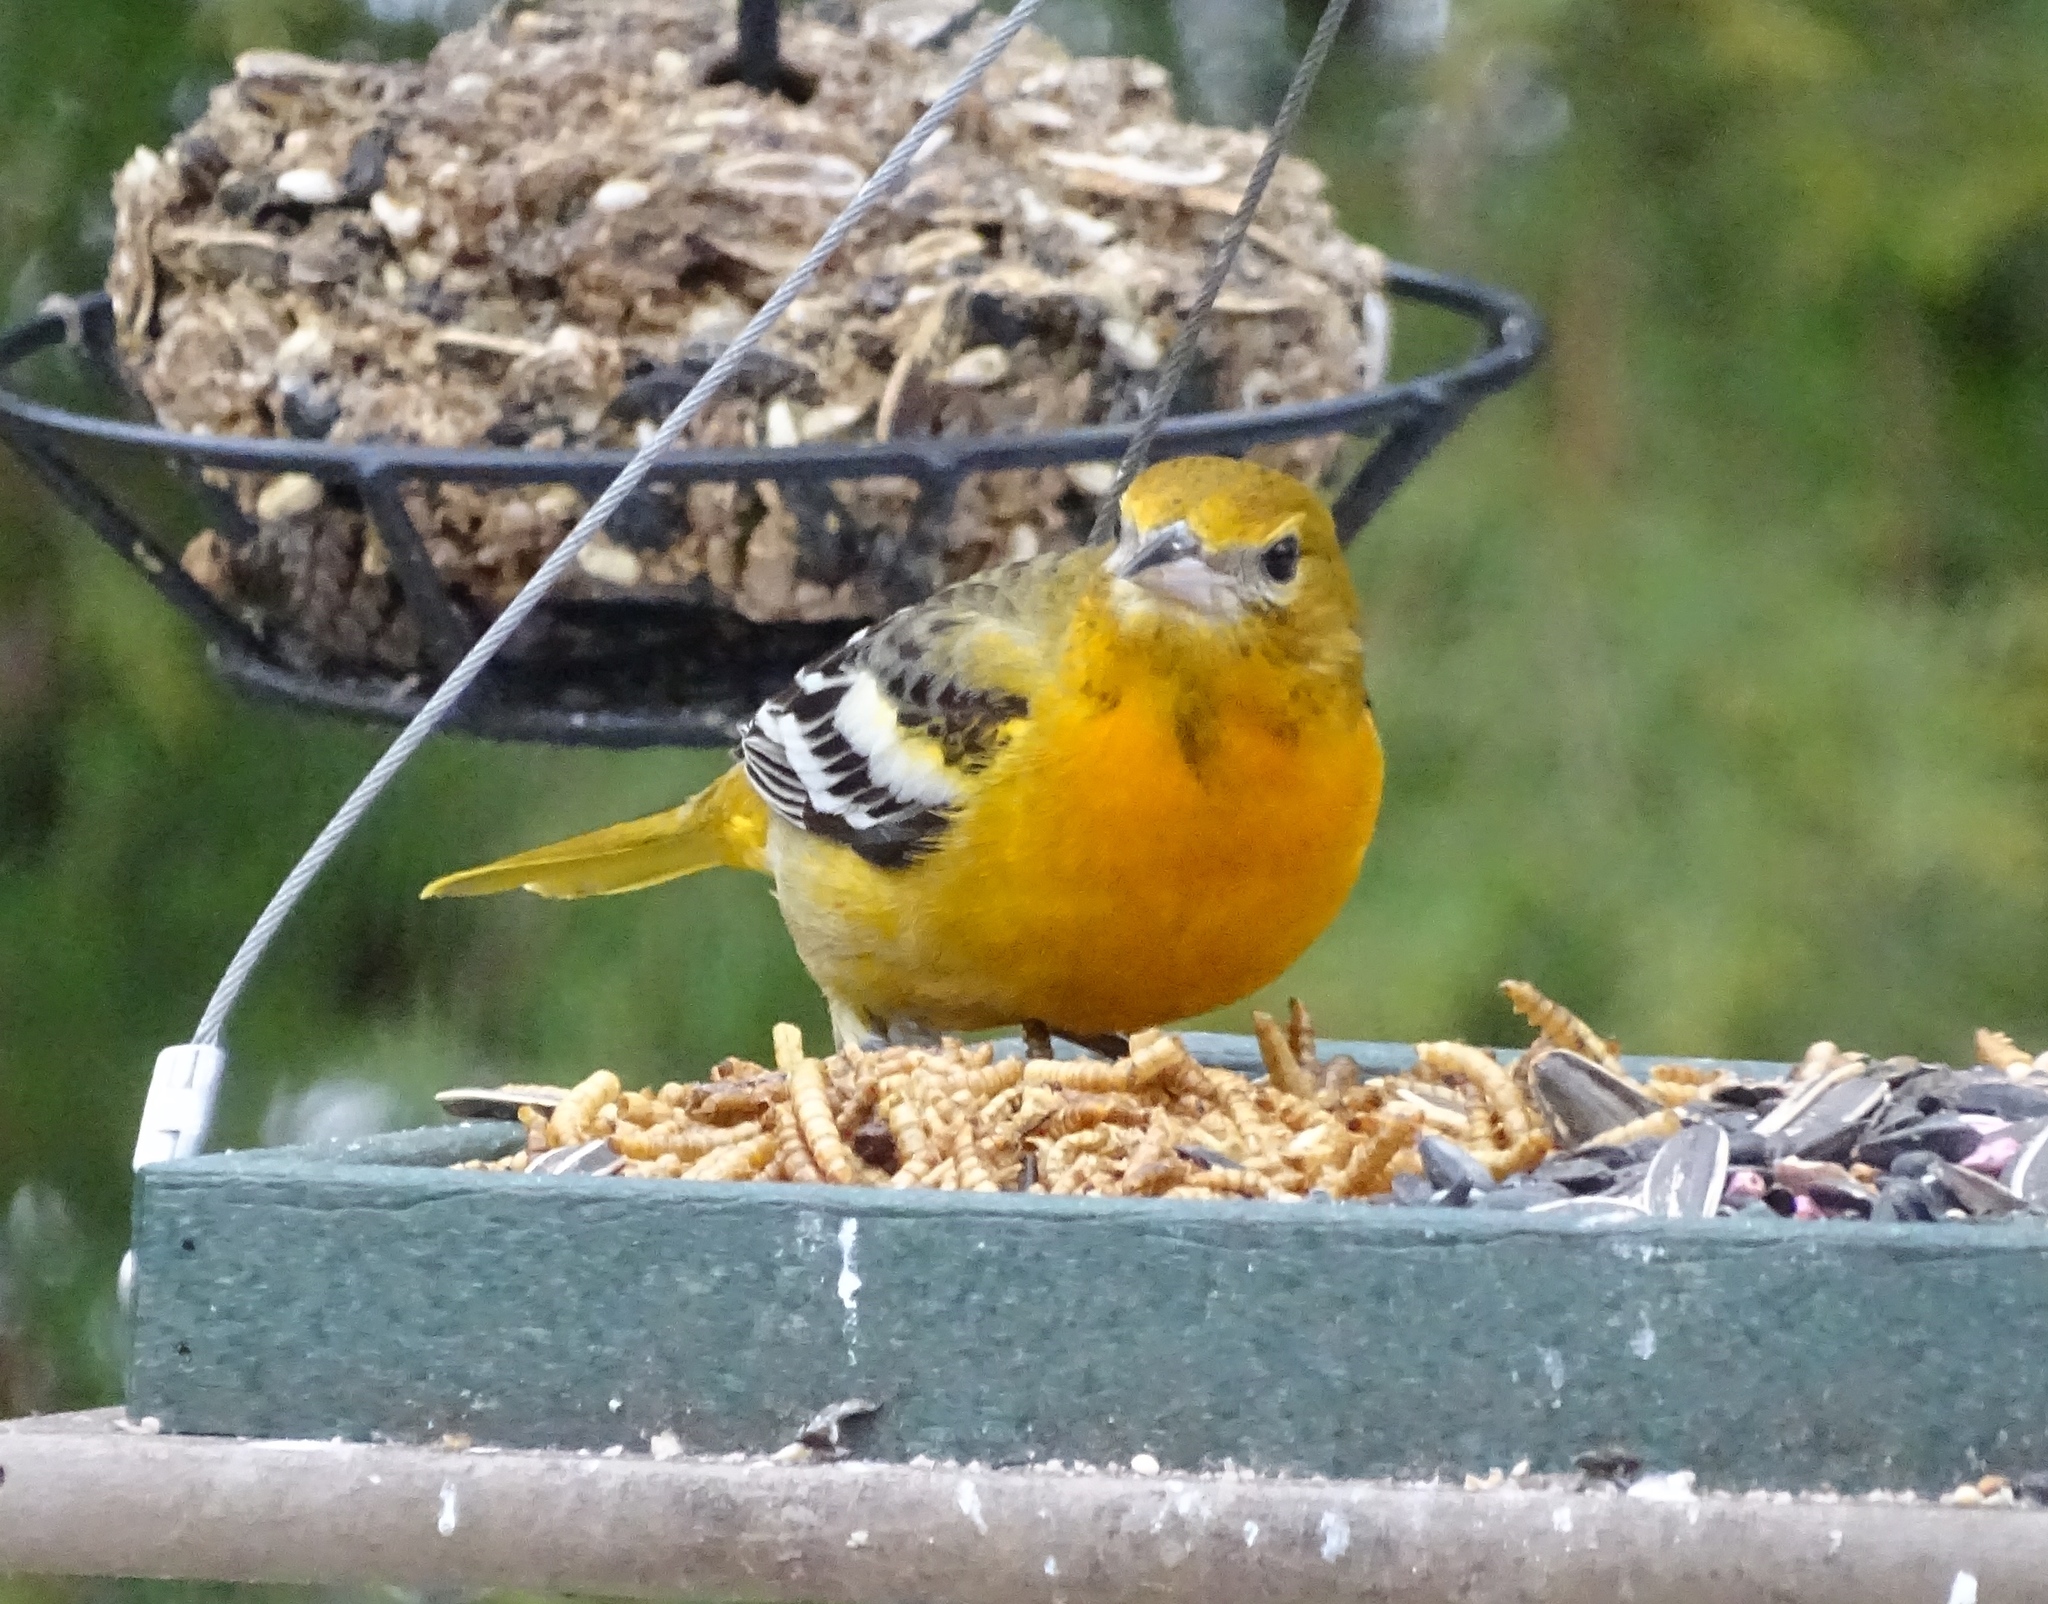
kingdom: Animalia
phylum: Chordata
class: Aves
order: Passeriformes
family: Icteridae
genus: Icterus
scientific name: Icterus galbula
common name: Baltimore oriole
